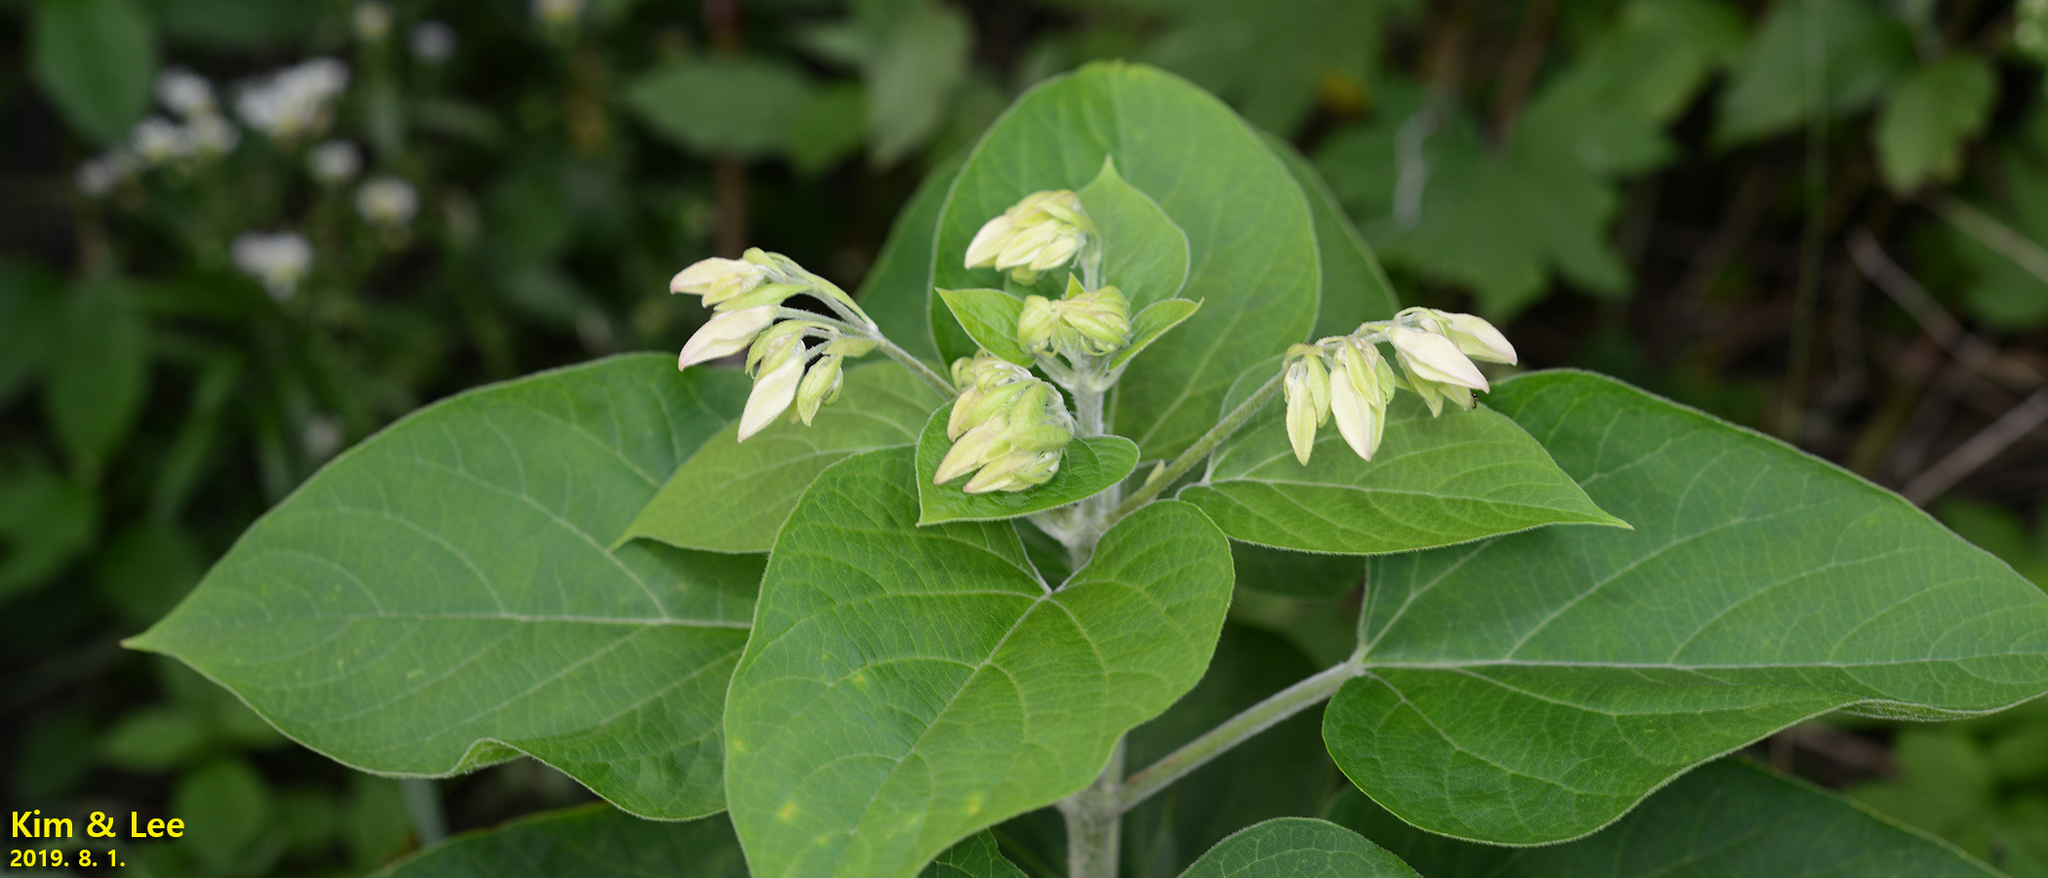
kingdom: Plantae
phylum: Tracheophyta
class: Magnoliopsida
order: Lamiales
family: Lamiaceae
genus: Clerodendrum
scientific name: Clerodendrum trichotomum
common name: Harlequin glorybower
